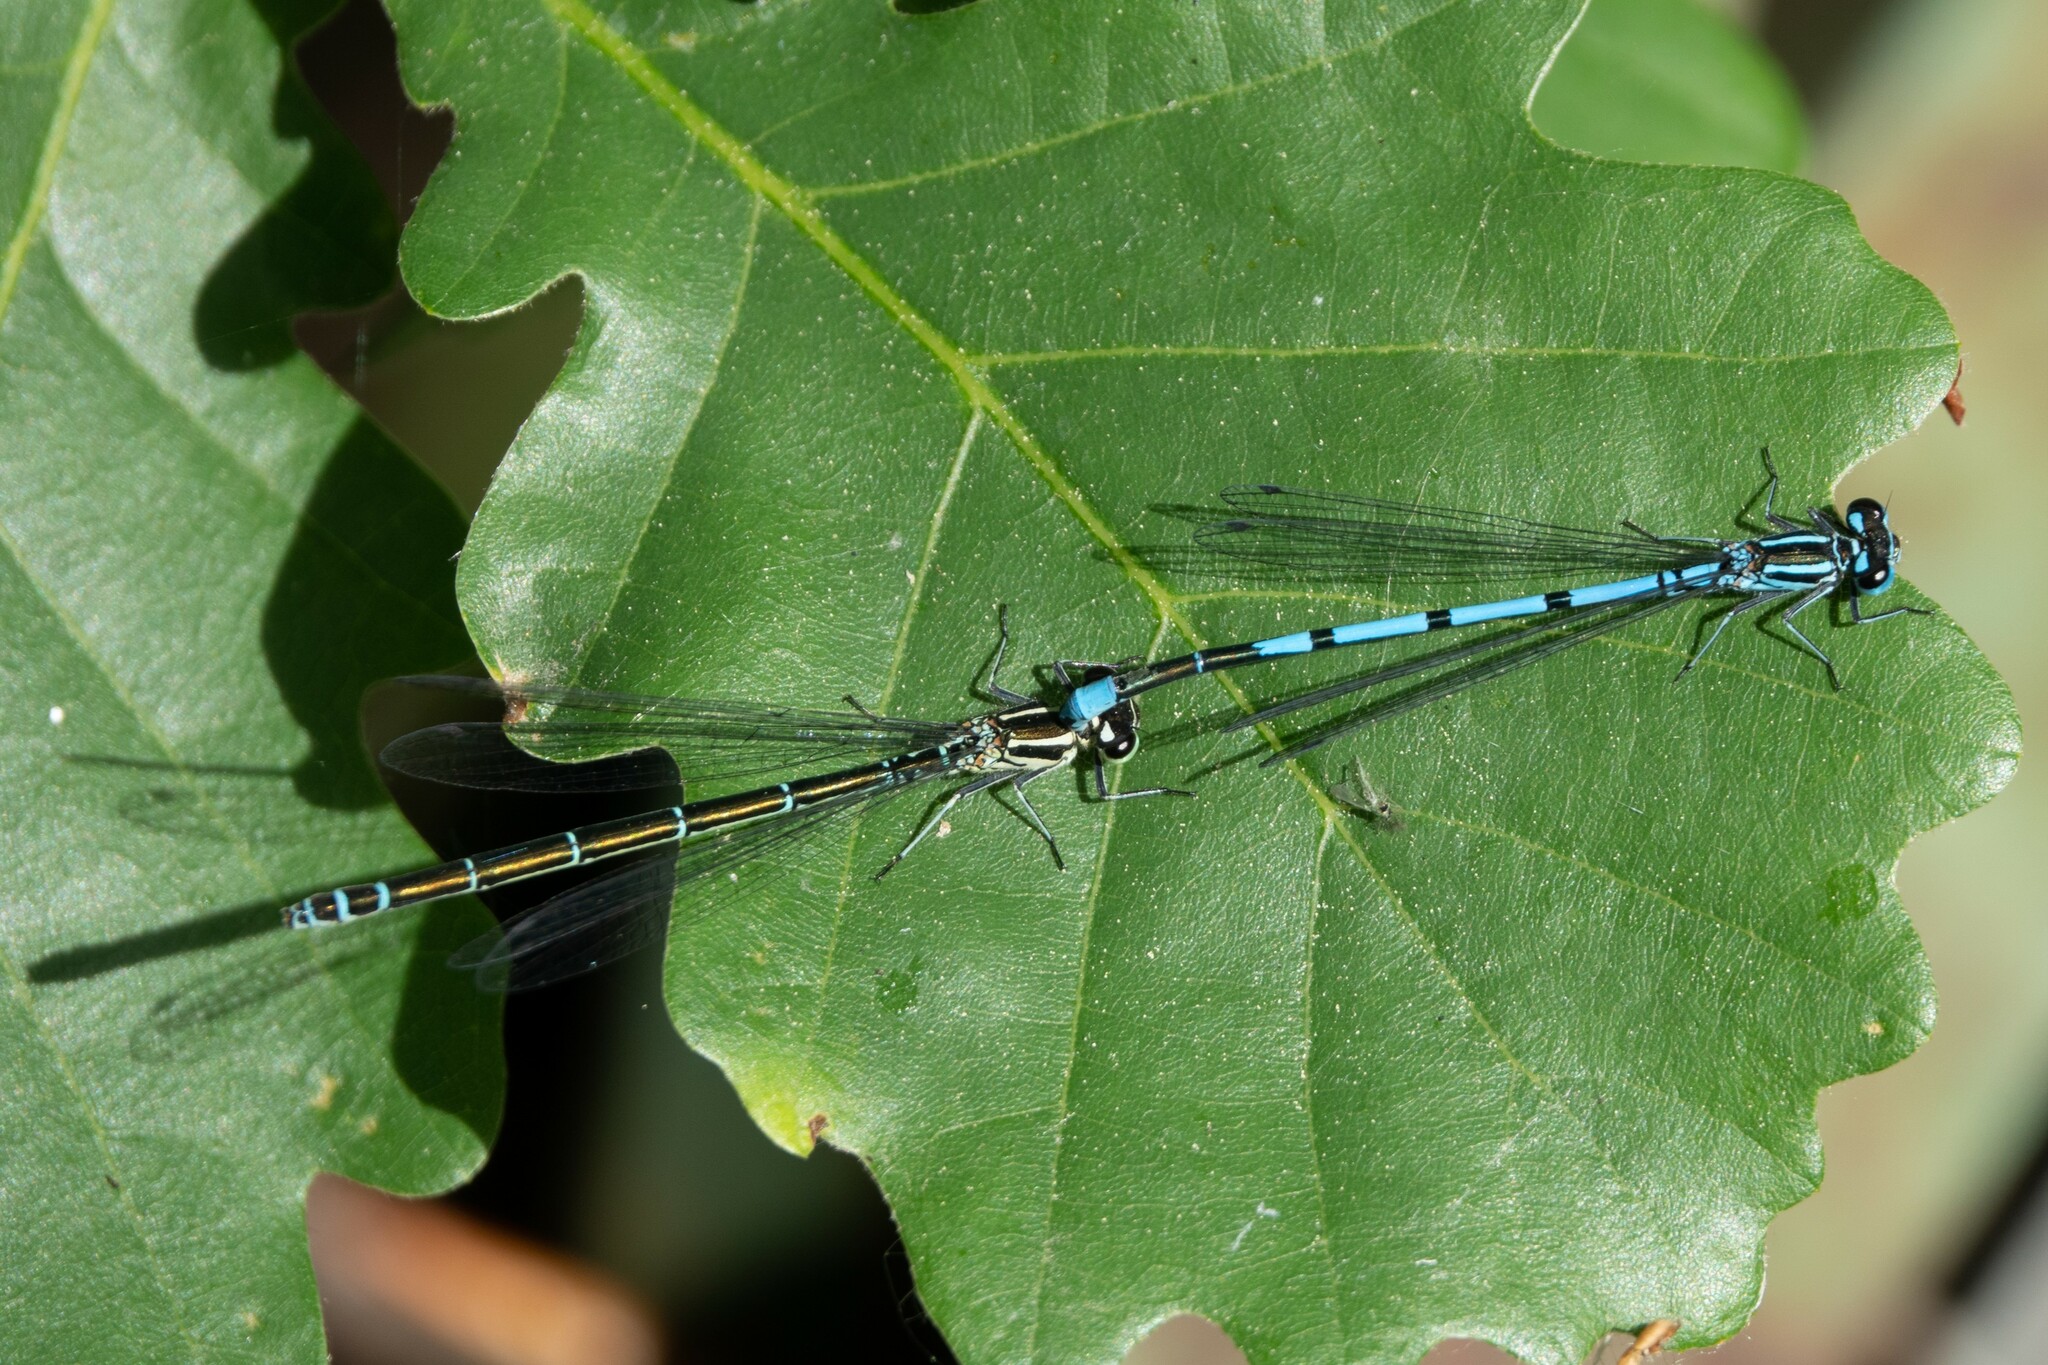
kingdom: Animalia
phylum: Arthropoda
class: Insecta
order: Odonata
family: Coenagrionidae
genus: Coenagrion
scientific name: Coenagrion puella
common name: Azure damselfly
